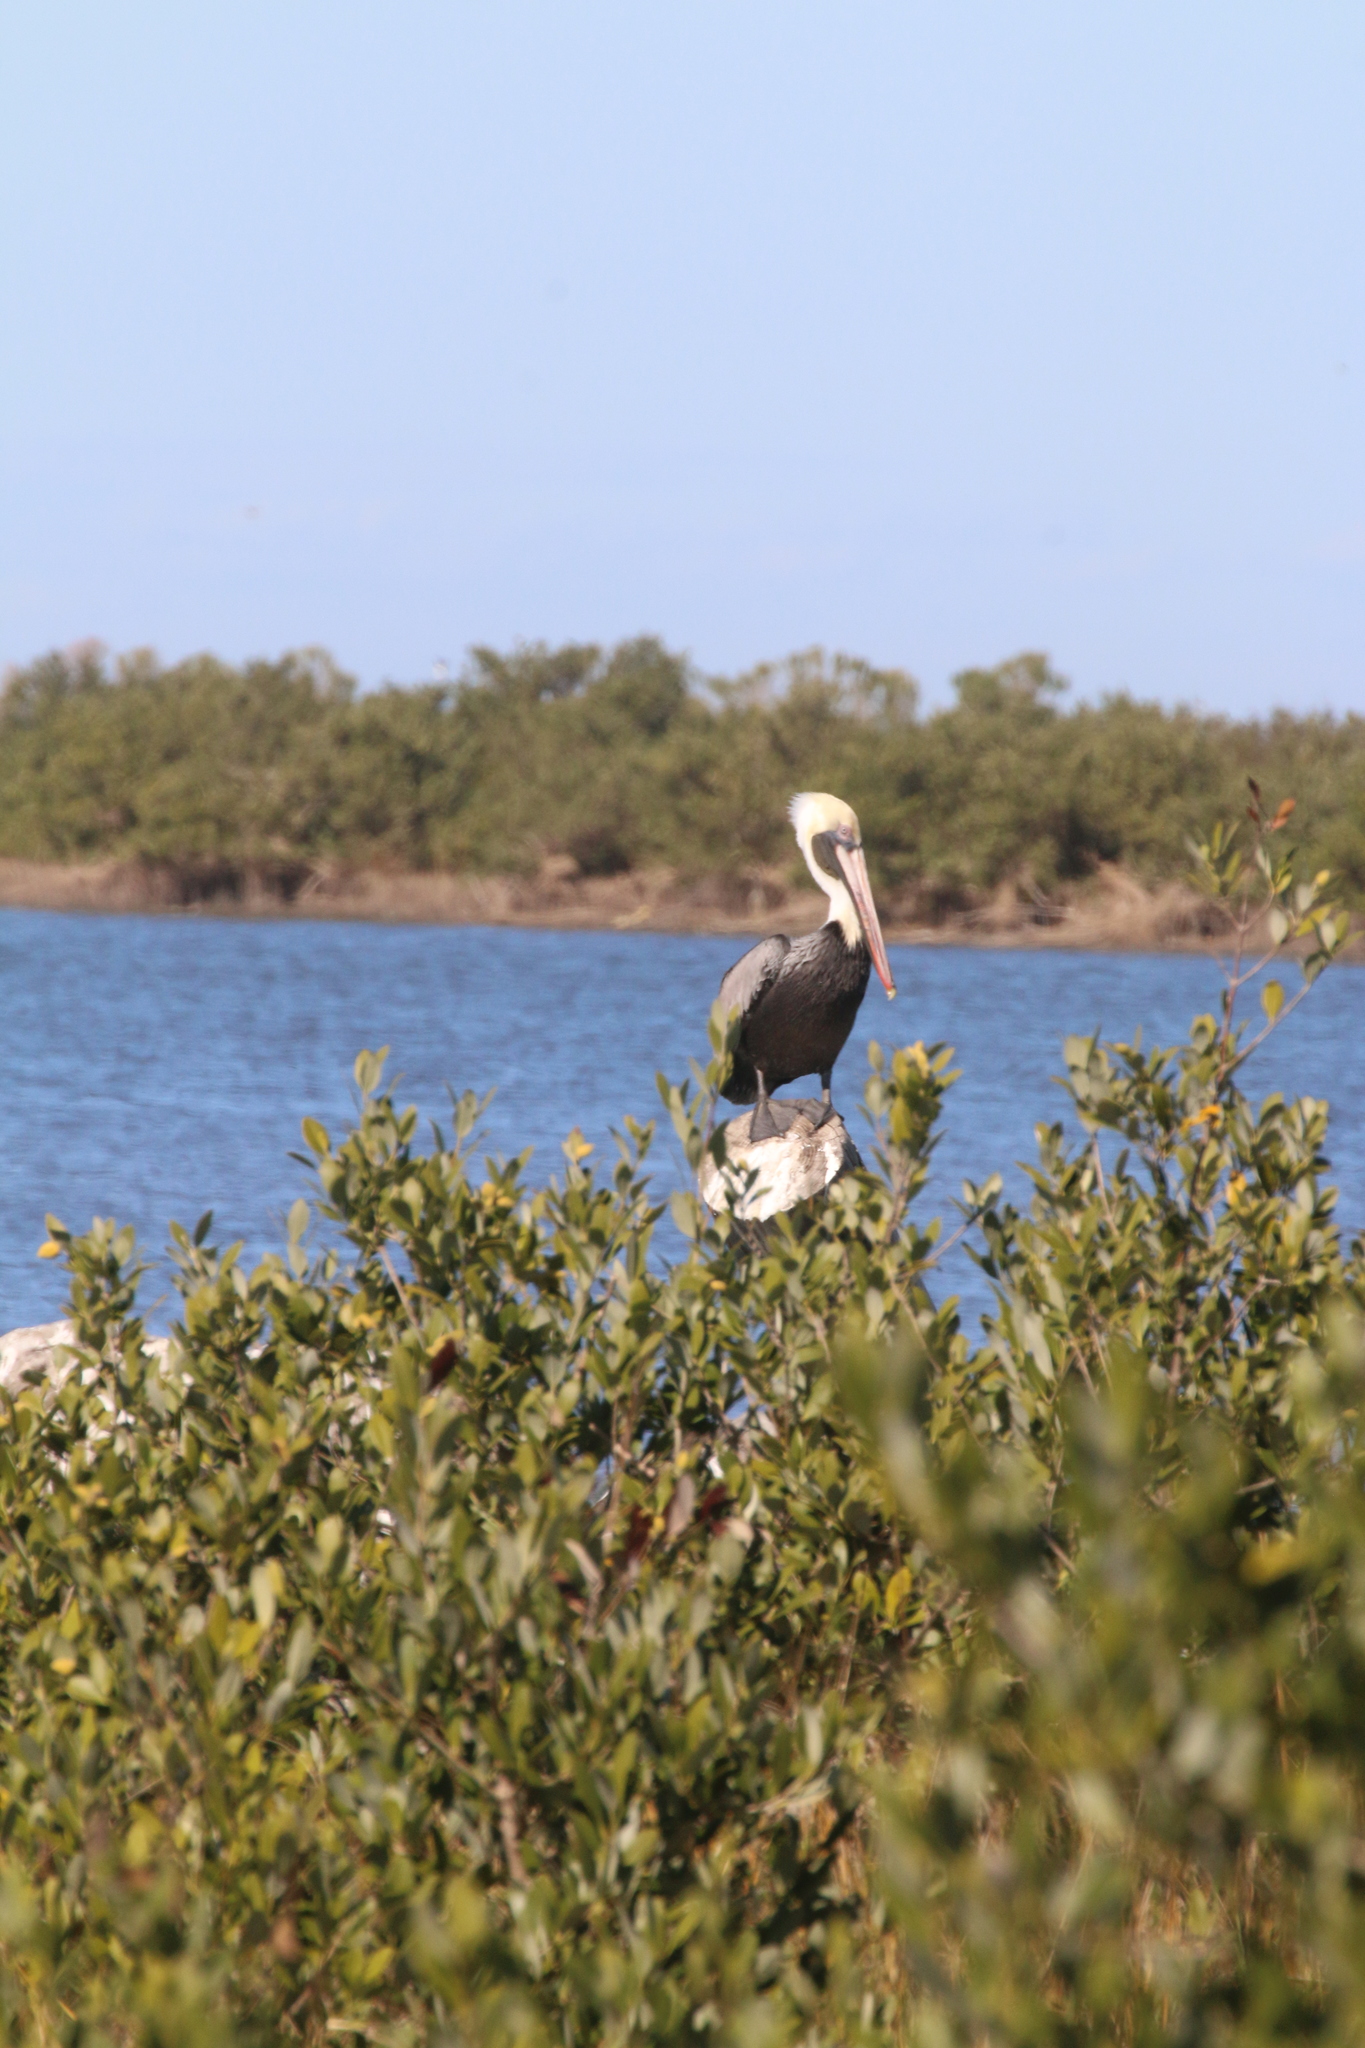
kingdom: Animalia
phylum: Chordata
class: Aves
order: Pelecaniformes
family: Pelecanidae
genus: Pelecanus
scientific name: Pelecanus occidentalis
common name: Brown pelican
